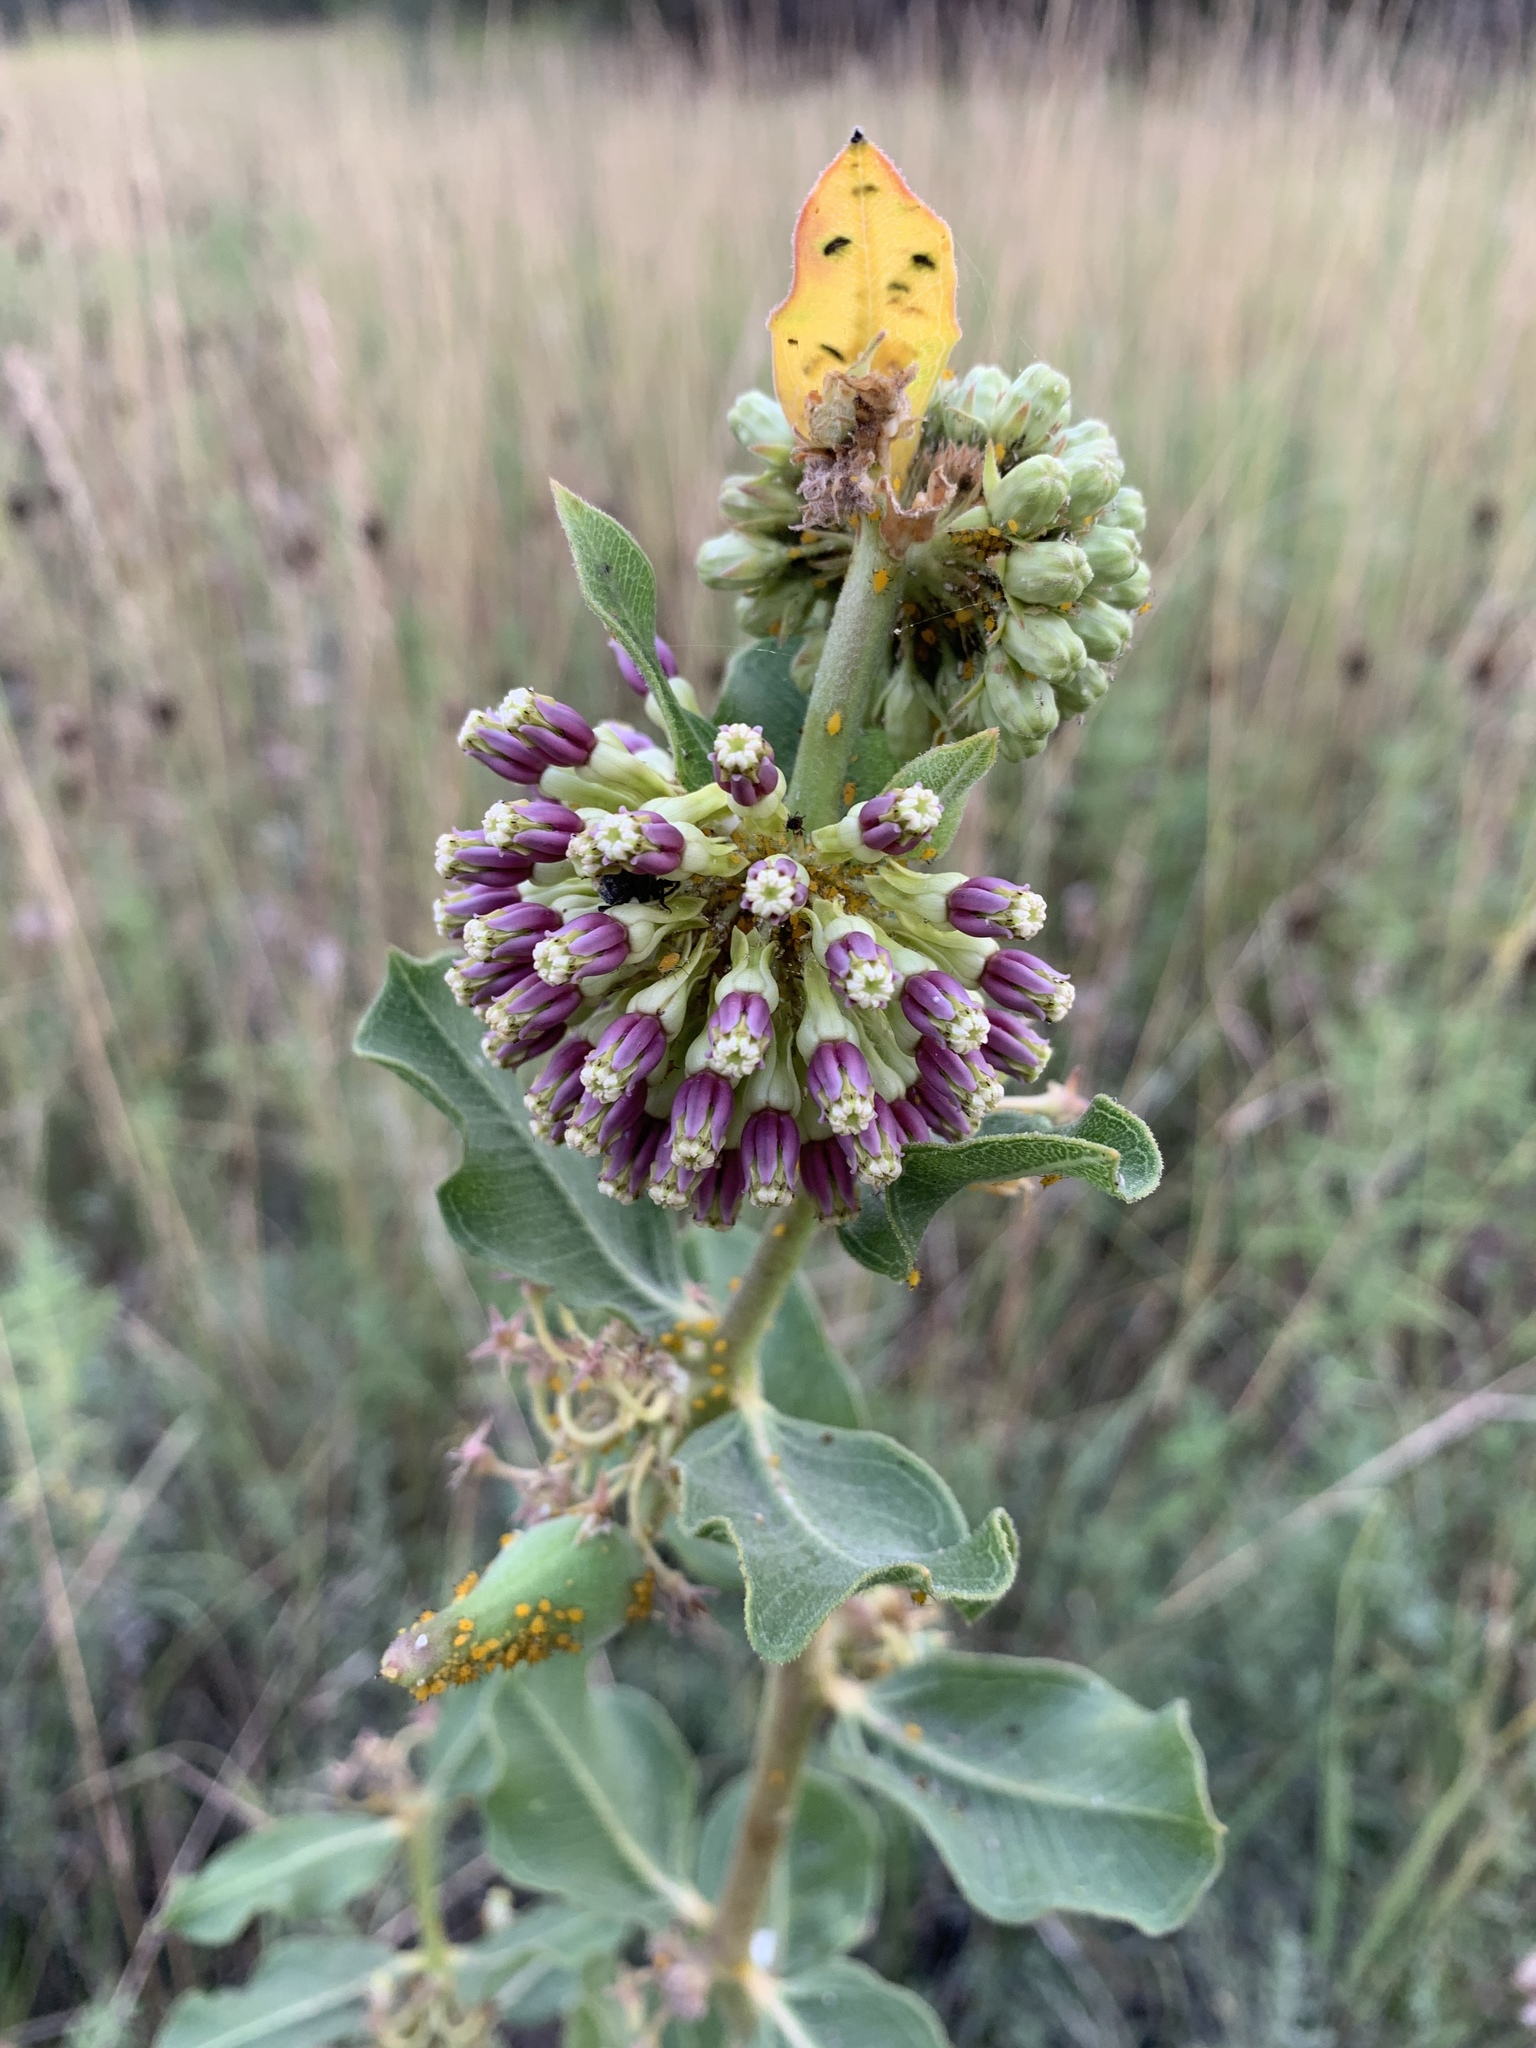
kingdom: Plantae
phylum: Tracheophyta
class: Magnoliopsida
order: Gentianales
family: Apocynaceae
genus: Asclepias
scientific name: Asclepias viridiflora
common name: Green comet milkweed
